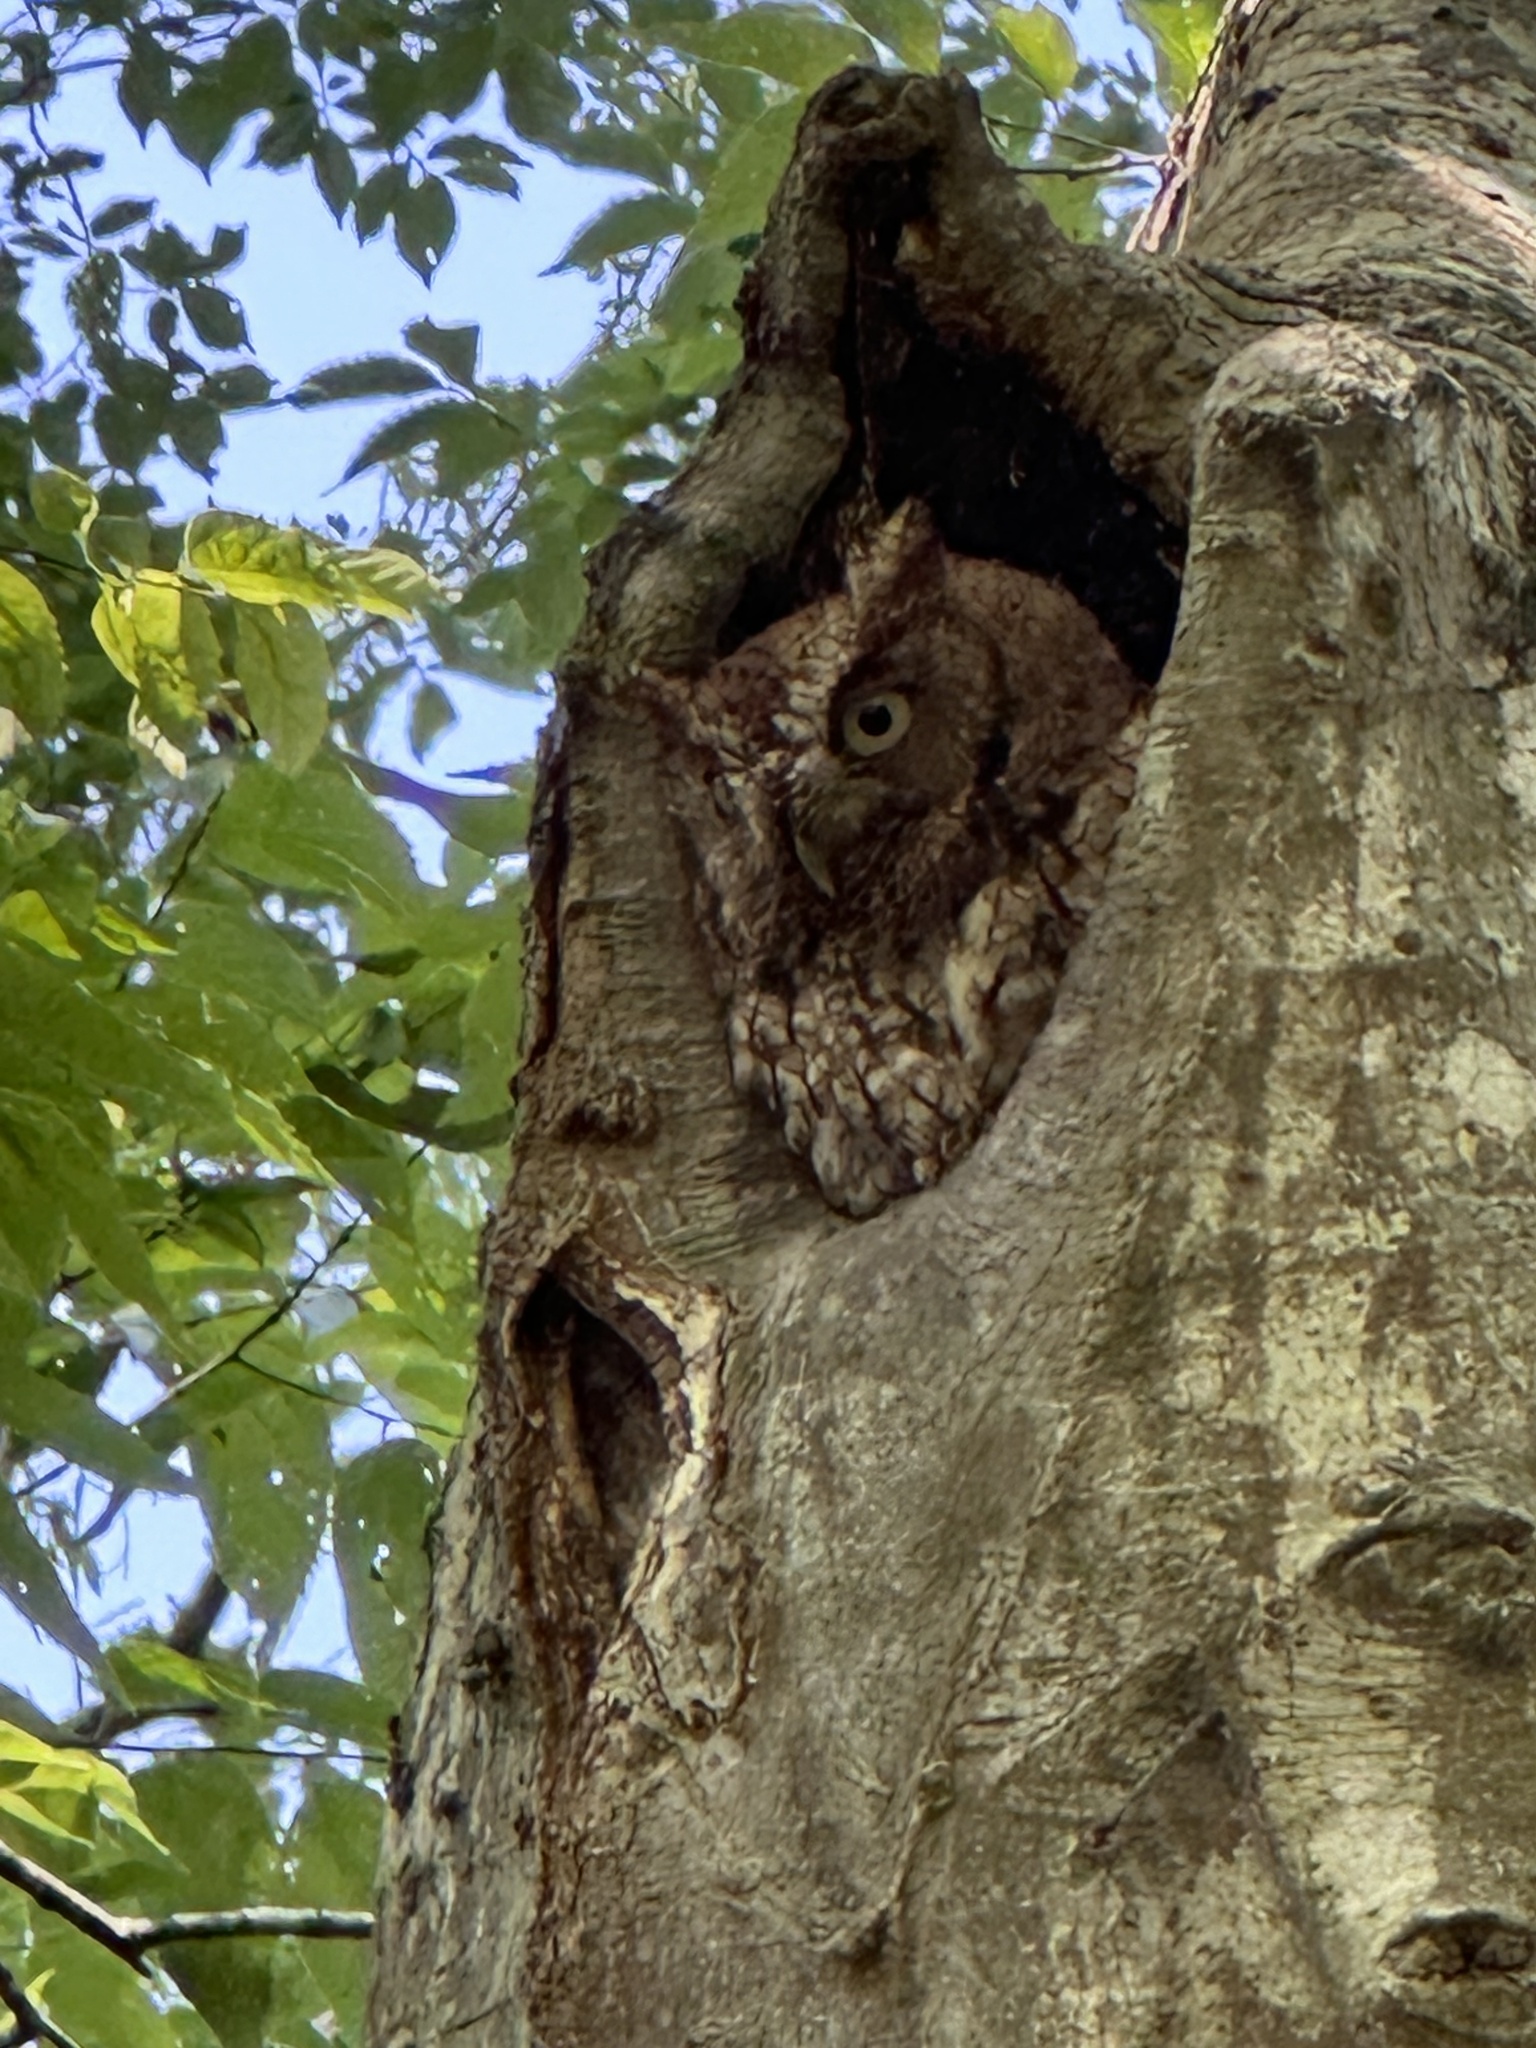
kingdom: Animalia
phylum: Chordata
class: Aves
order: Strigiformes
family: Strigidae
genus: Megascops
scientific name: Megascops asio
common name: Eastern screech-owl
